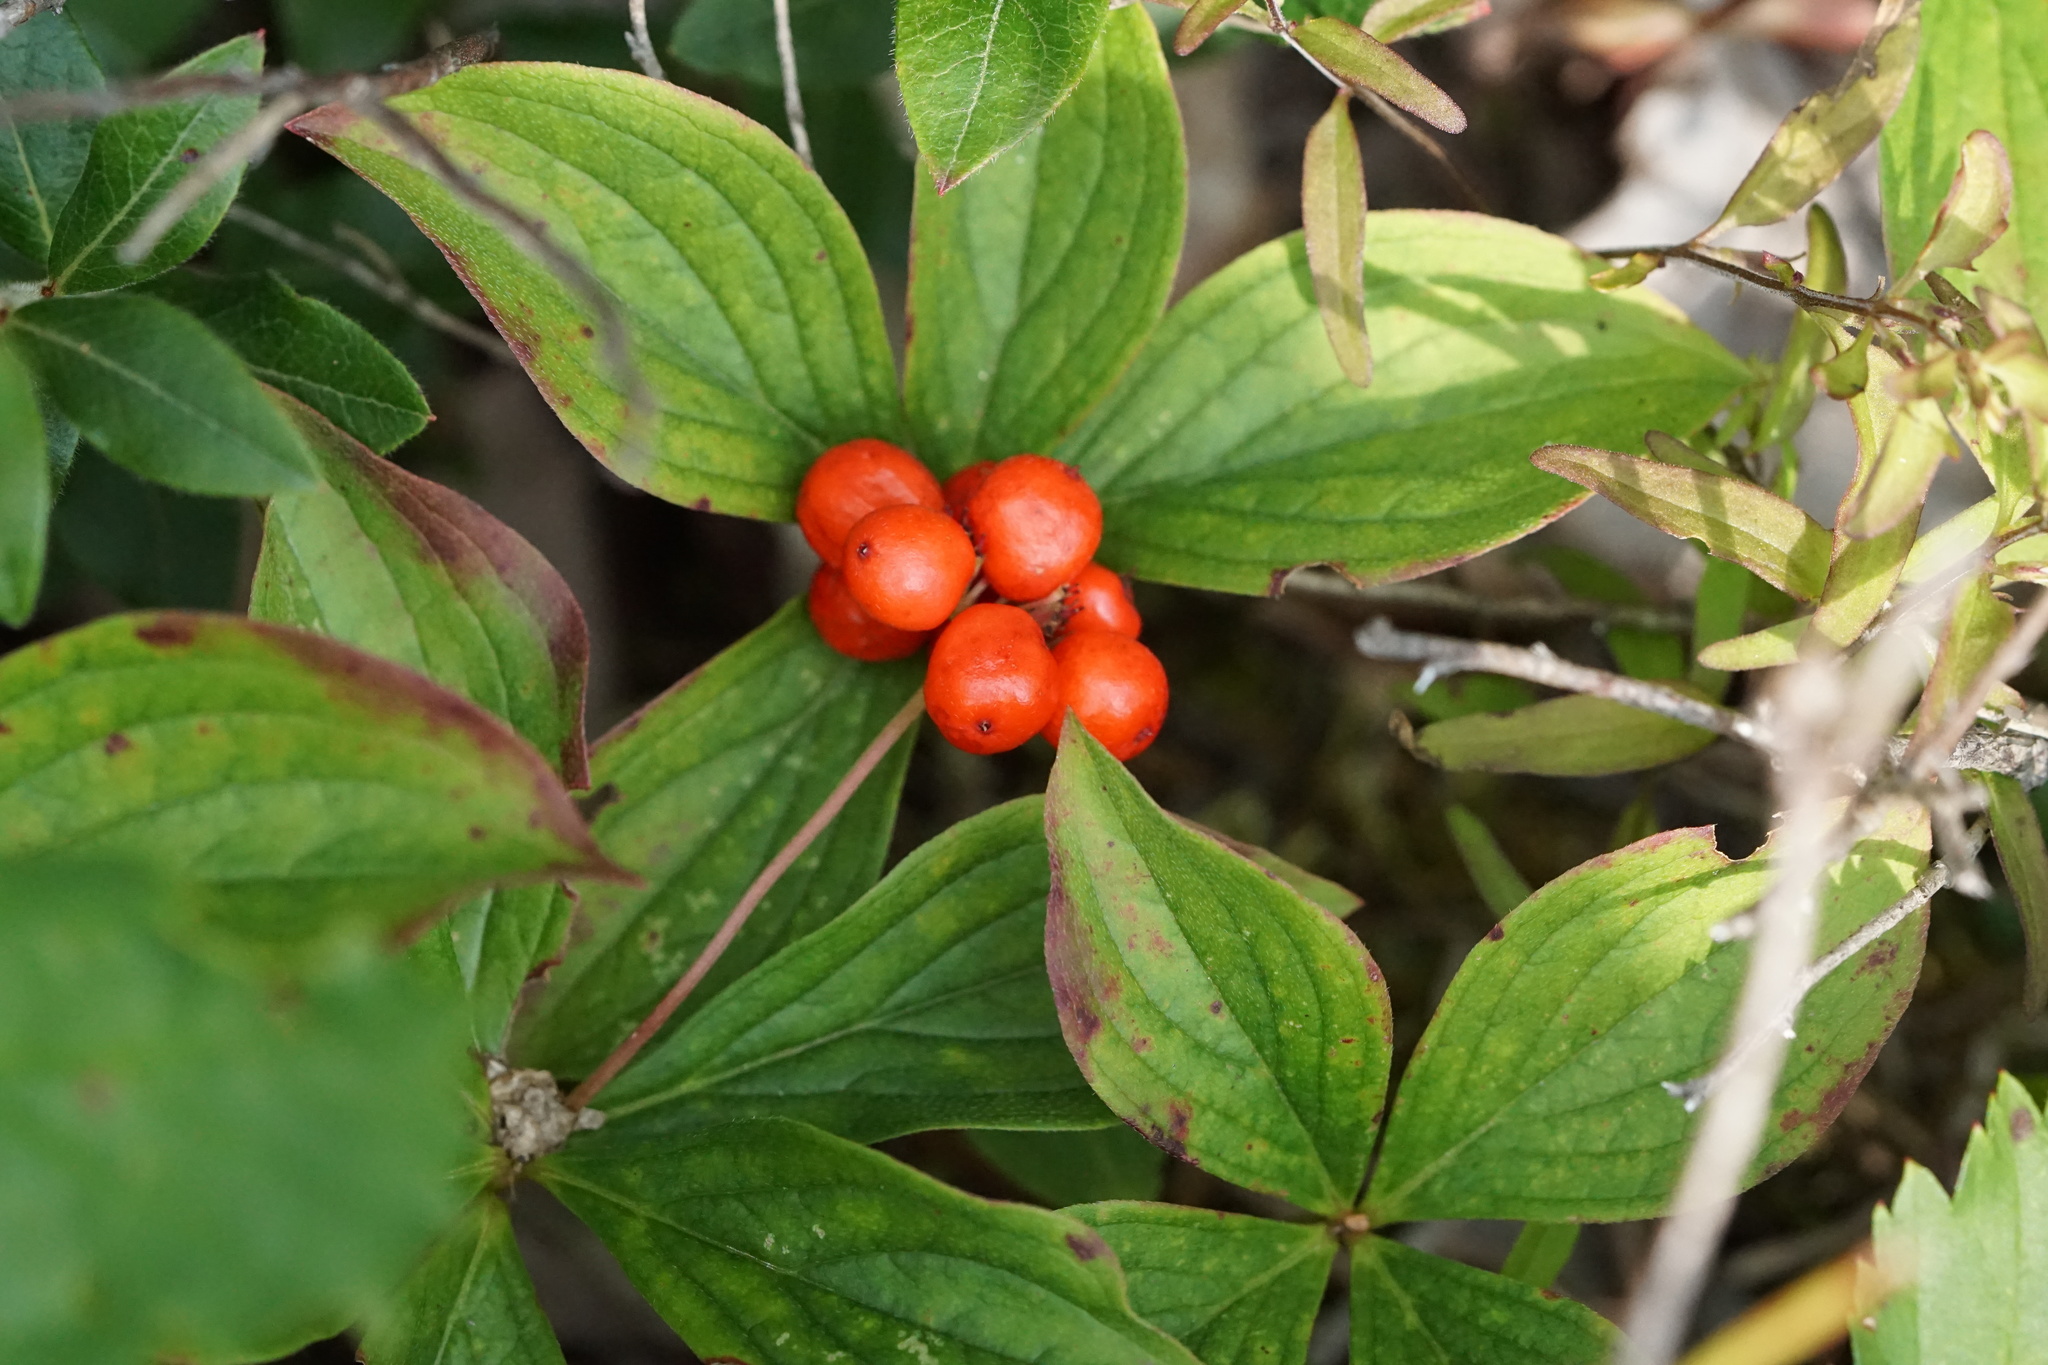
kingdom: Plantae
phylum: Tracheophyta
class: Magnoliopsida
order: Cornales
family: Cornaceae
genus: Cornus
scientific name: Cornus canadensis
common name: Creeping dogwood
